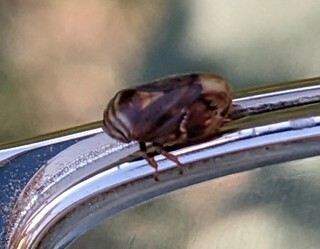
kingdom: Animalia
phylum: Arthropoda
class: Insecta
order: Hemiptera
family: Clastopteridae
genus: Clastoptera
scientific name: Clastoptera obtusa
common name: Alder spittlebug
